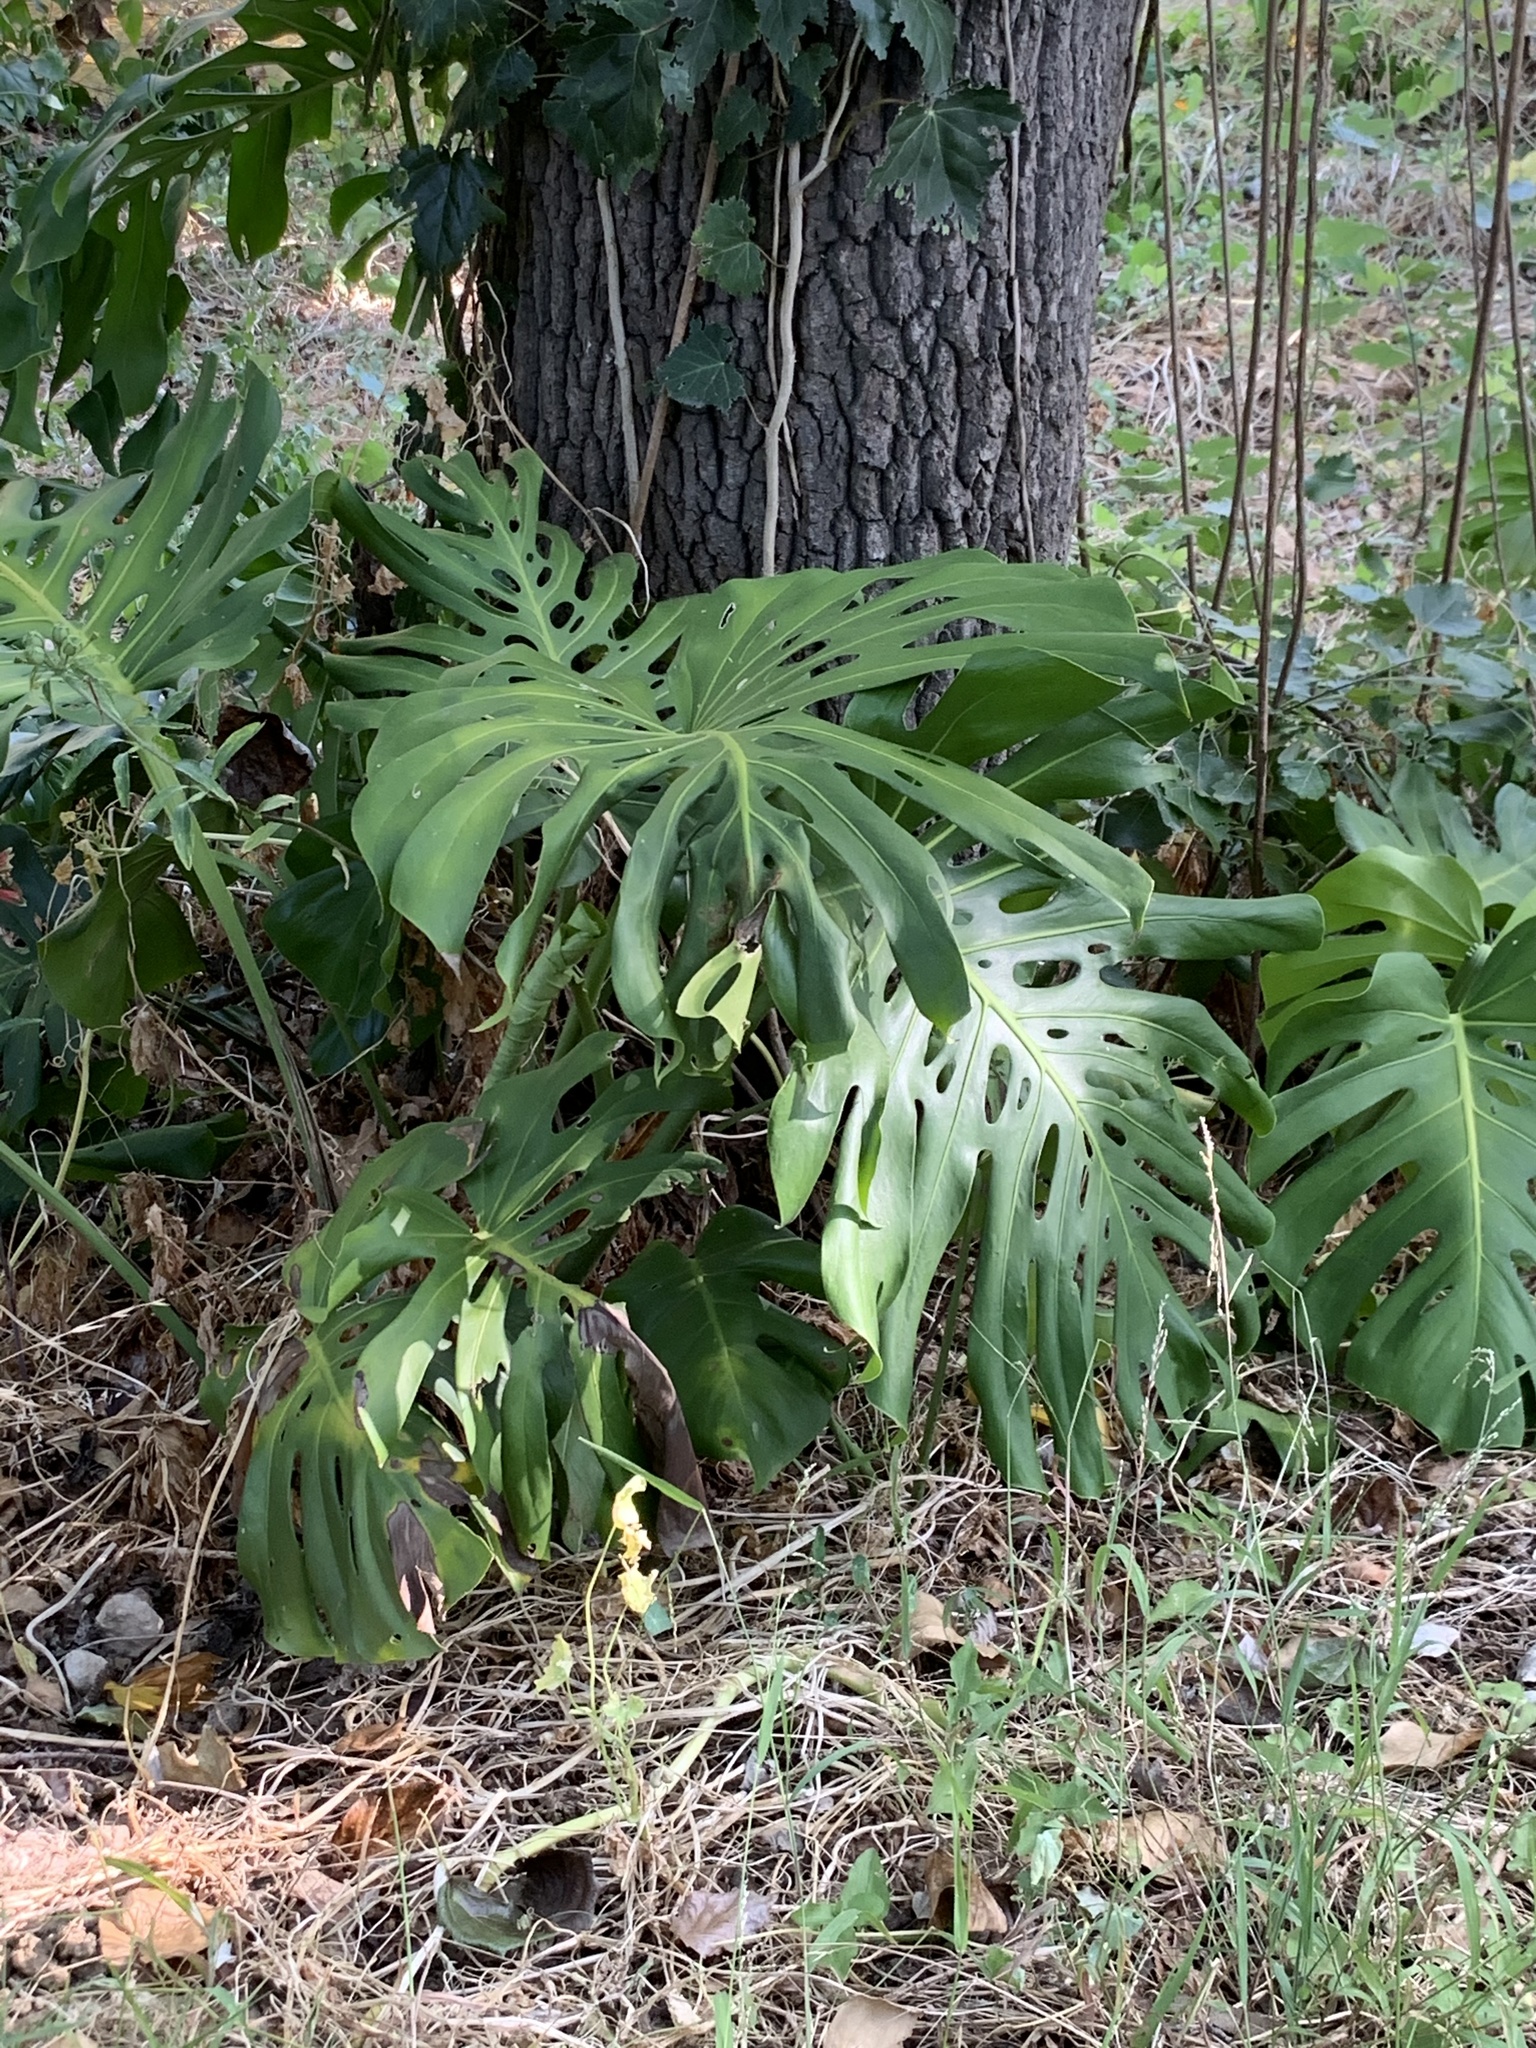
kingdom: Plantae
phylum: Tracheophyta
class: Liliopsida
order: Alismatales
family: Araceae
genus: Monstera
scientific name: Monstera deliciosa
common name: Cut-leaf-philodendron
